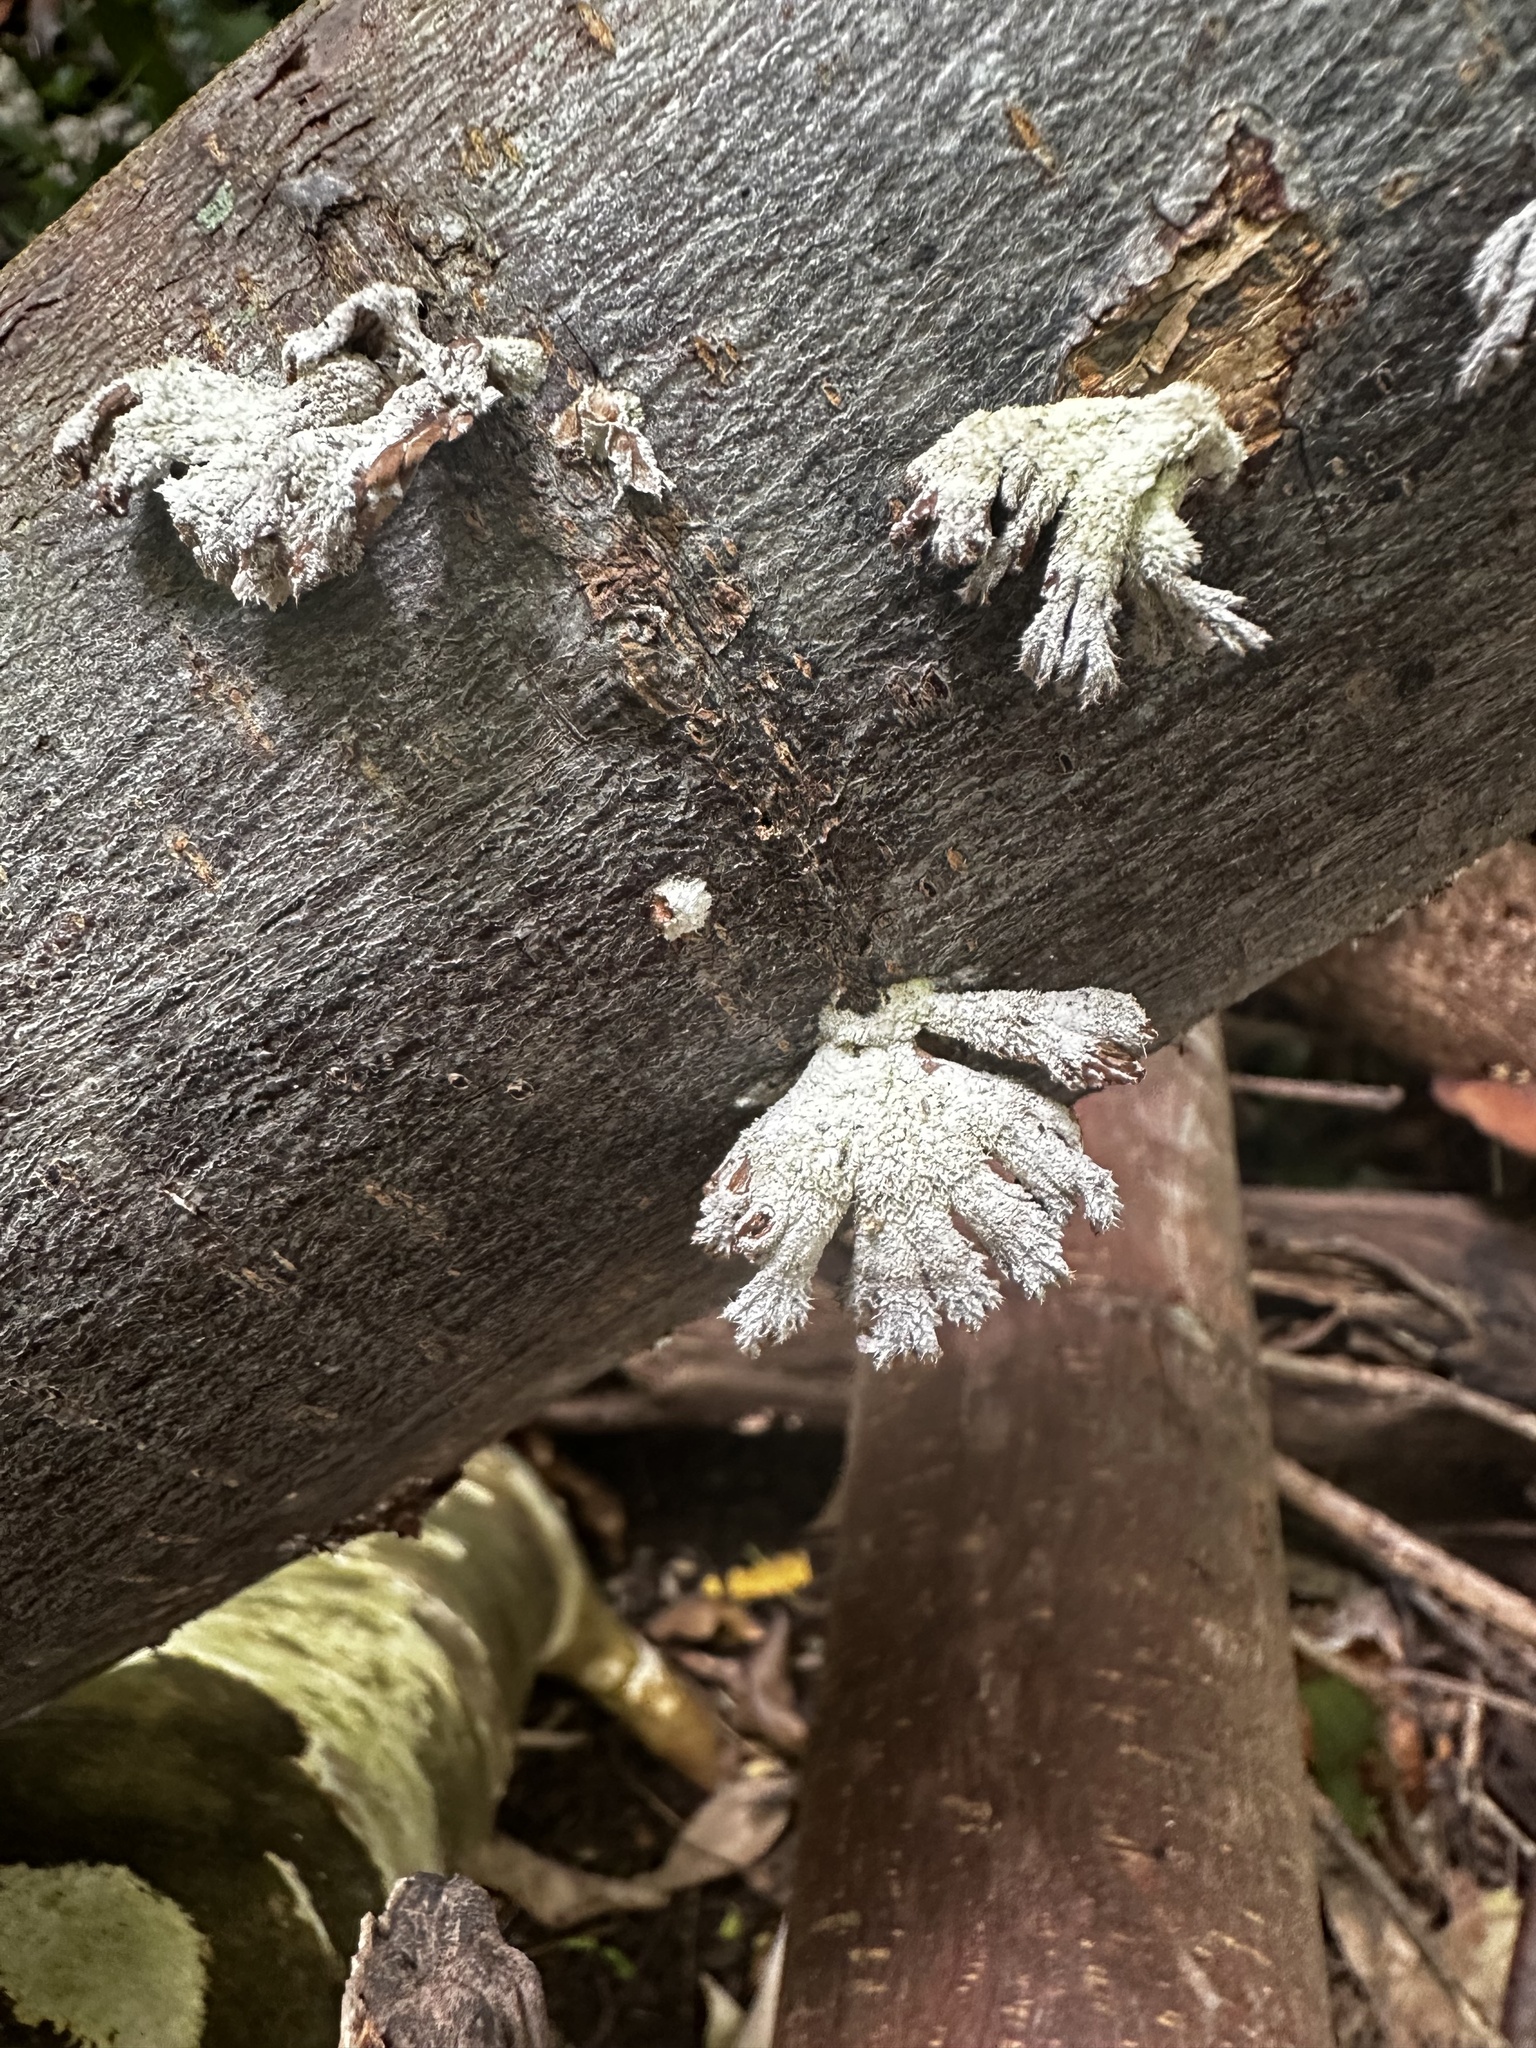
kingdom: Fungi
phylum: Basidiomycota
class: Agaricomycetes
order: Agaricales
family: Schizophyllaceae
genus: Schizophyllum
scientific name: Schizophyllum commune
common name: Common porecrust
